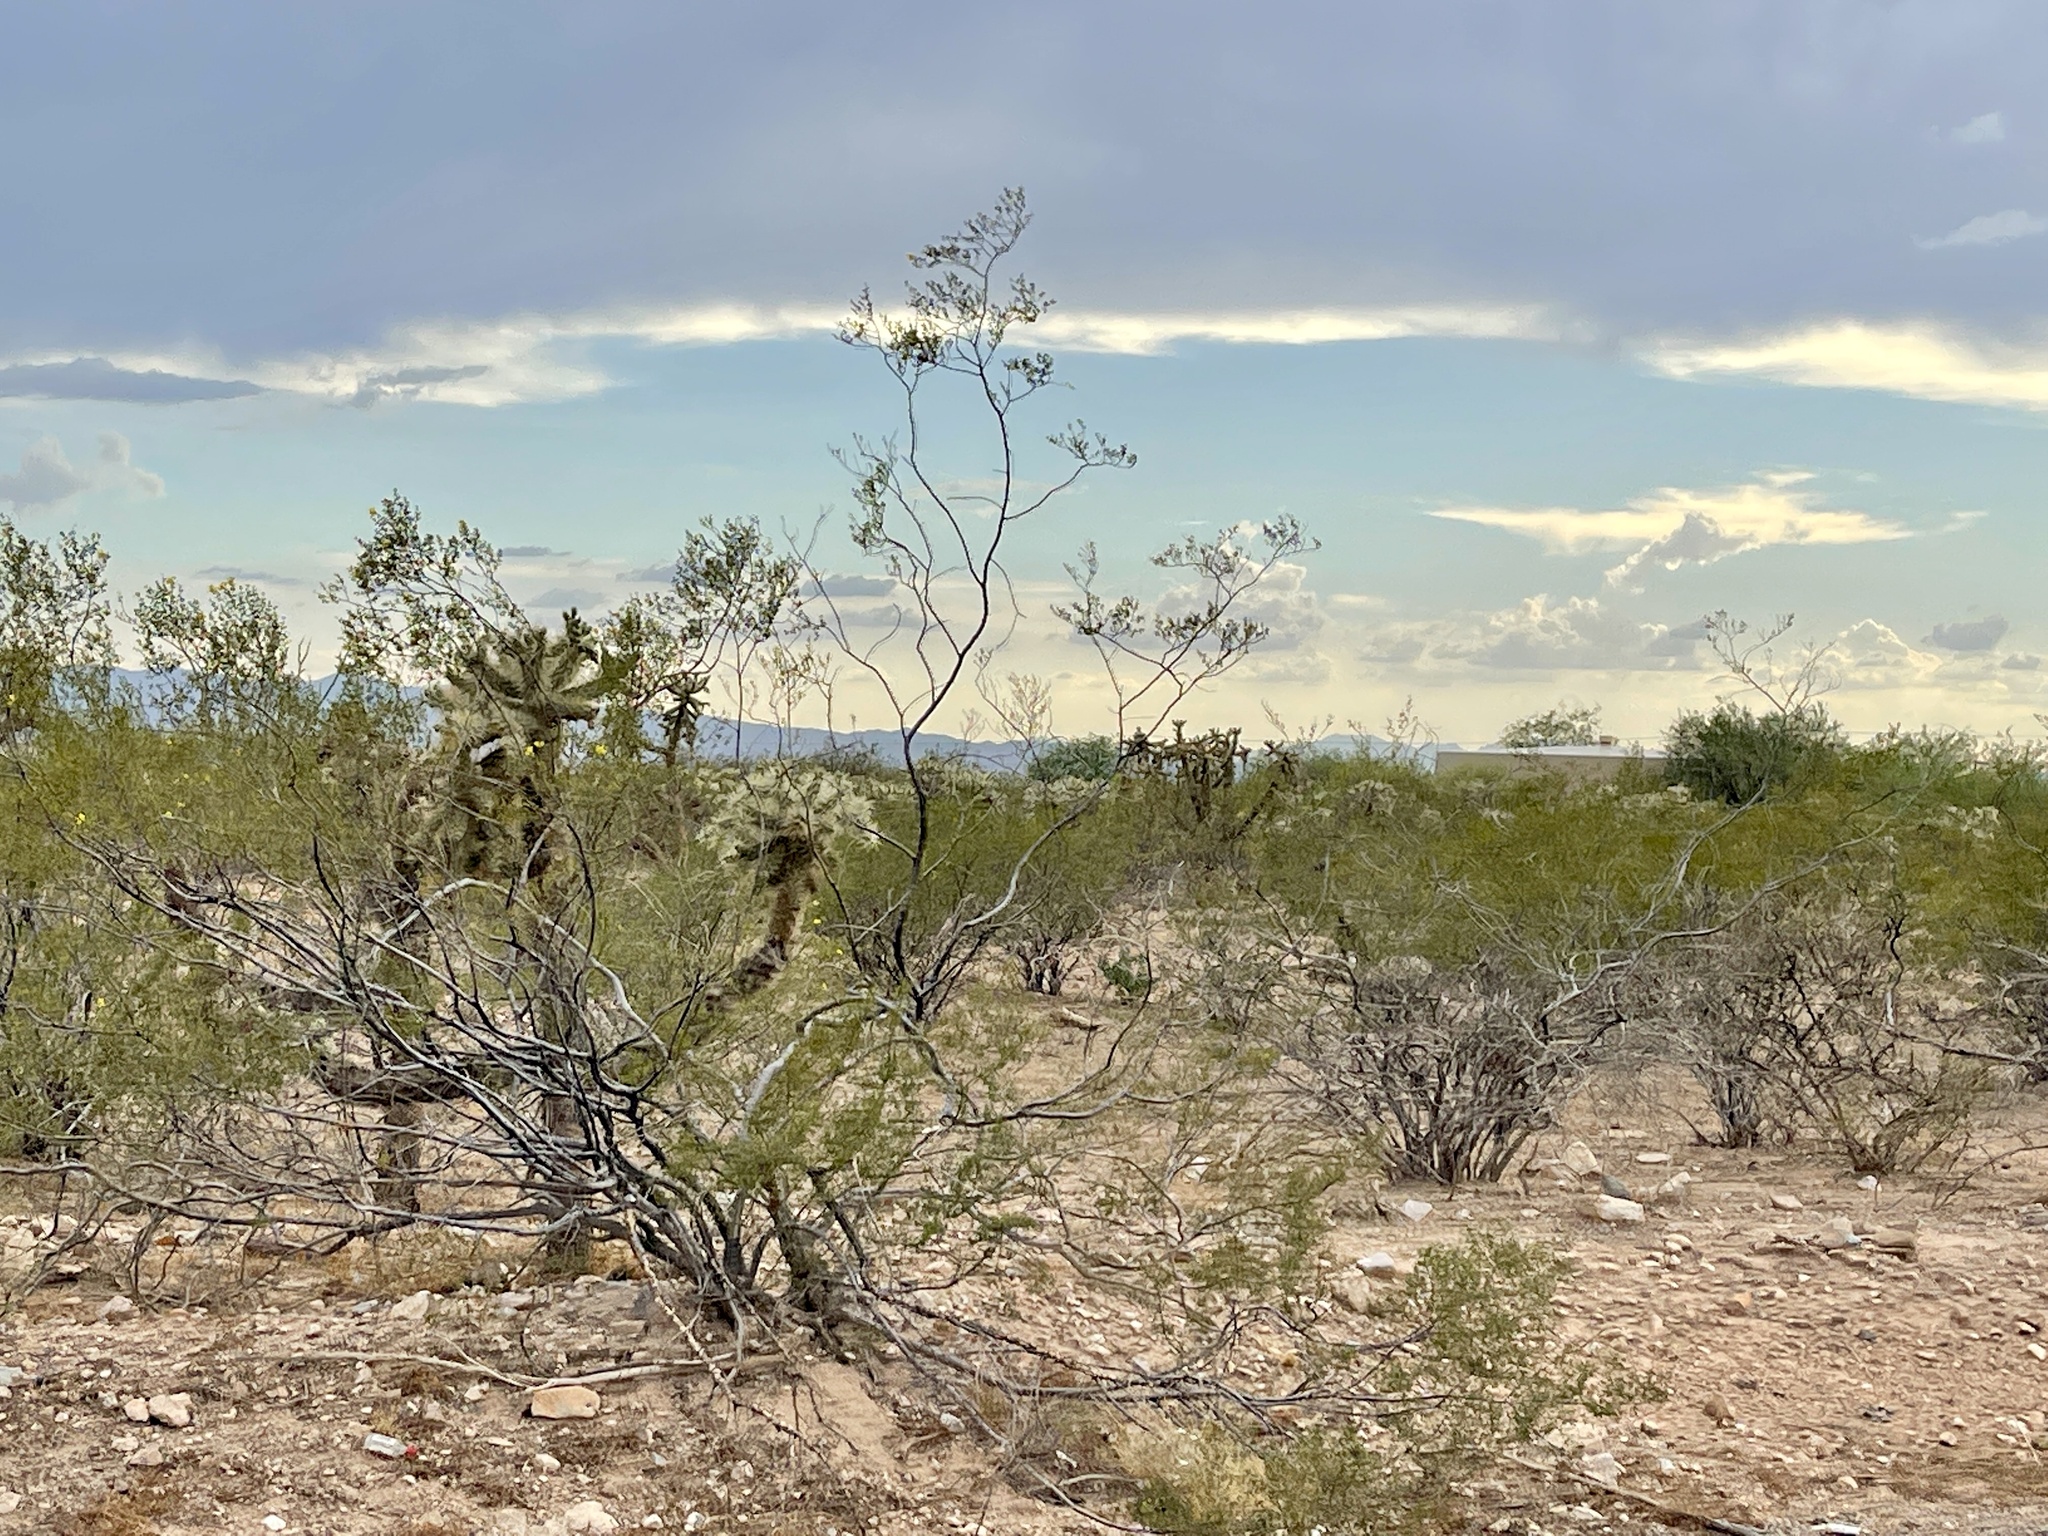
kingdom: Plantae
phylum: Tracheophyta
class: Magnoliopsida
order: Zygophyllales
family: Zygophyllaceae
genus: Larrea
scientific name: Larrea tridentata
